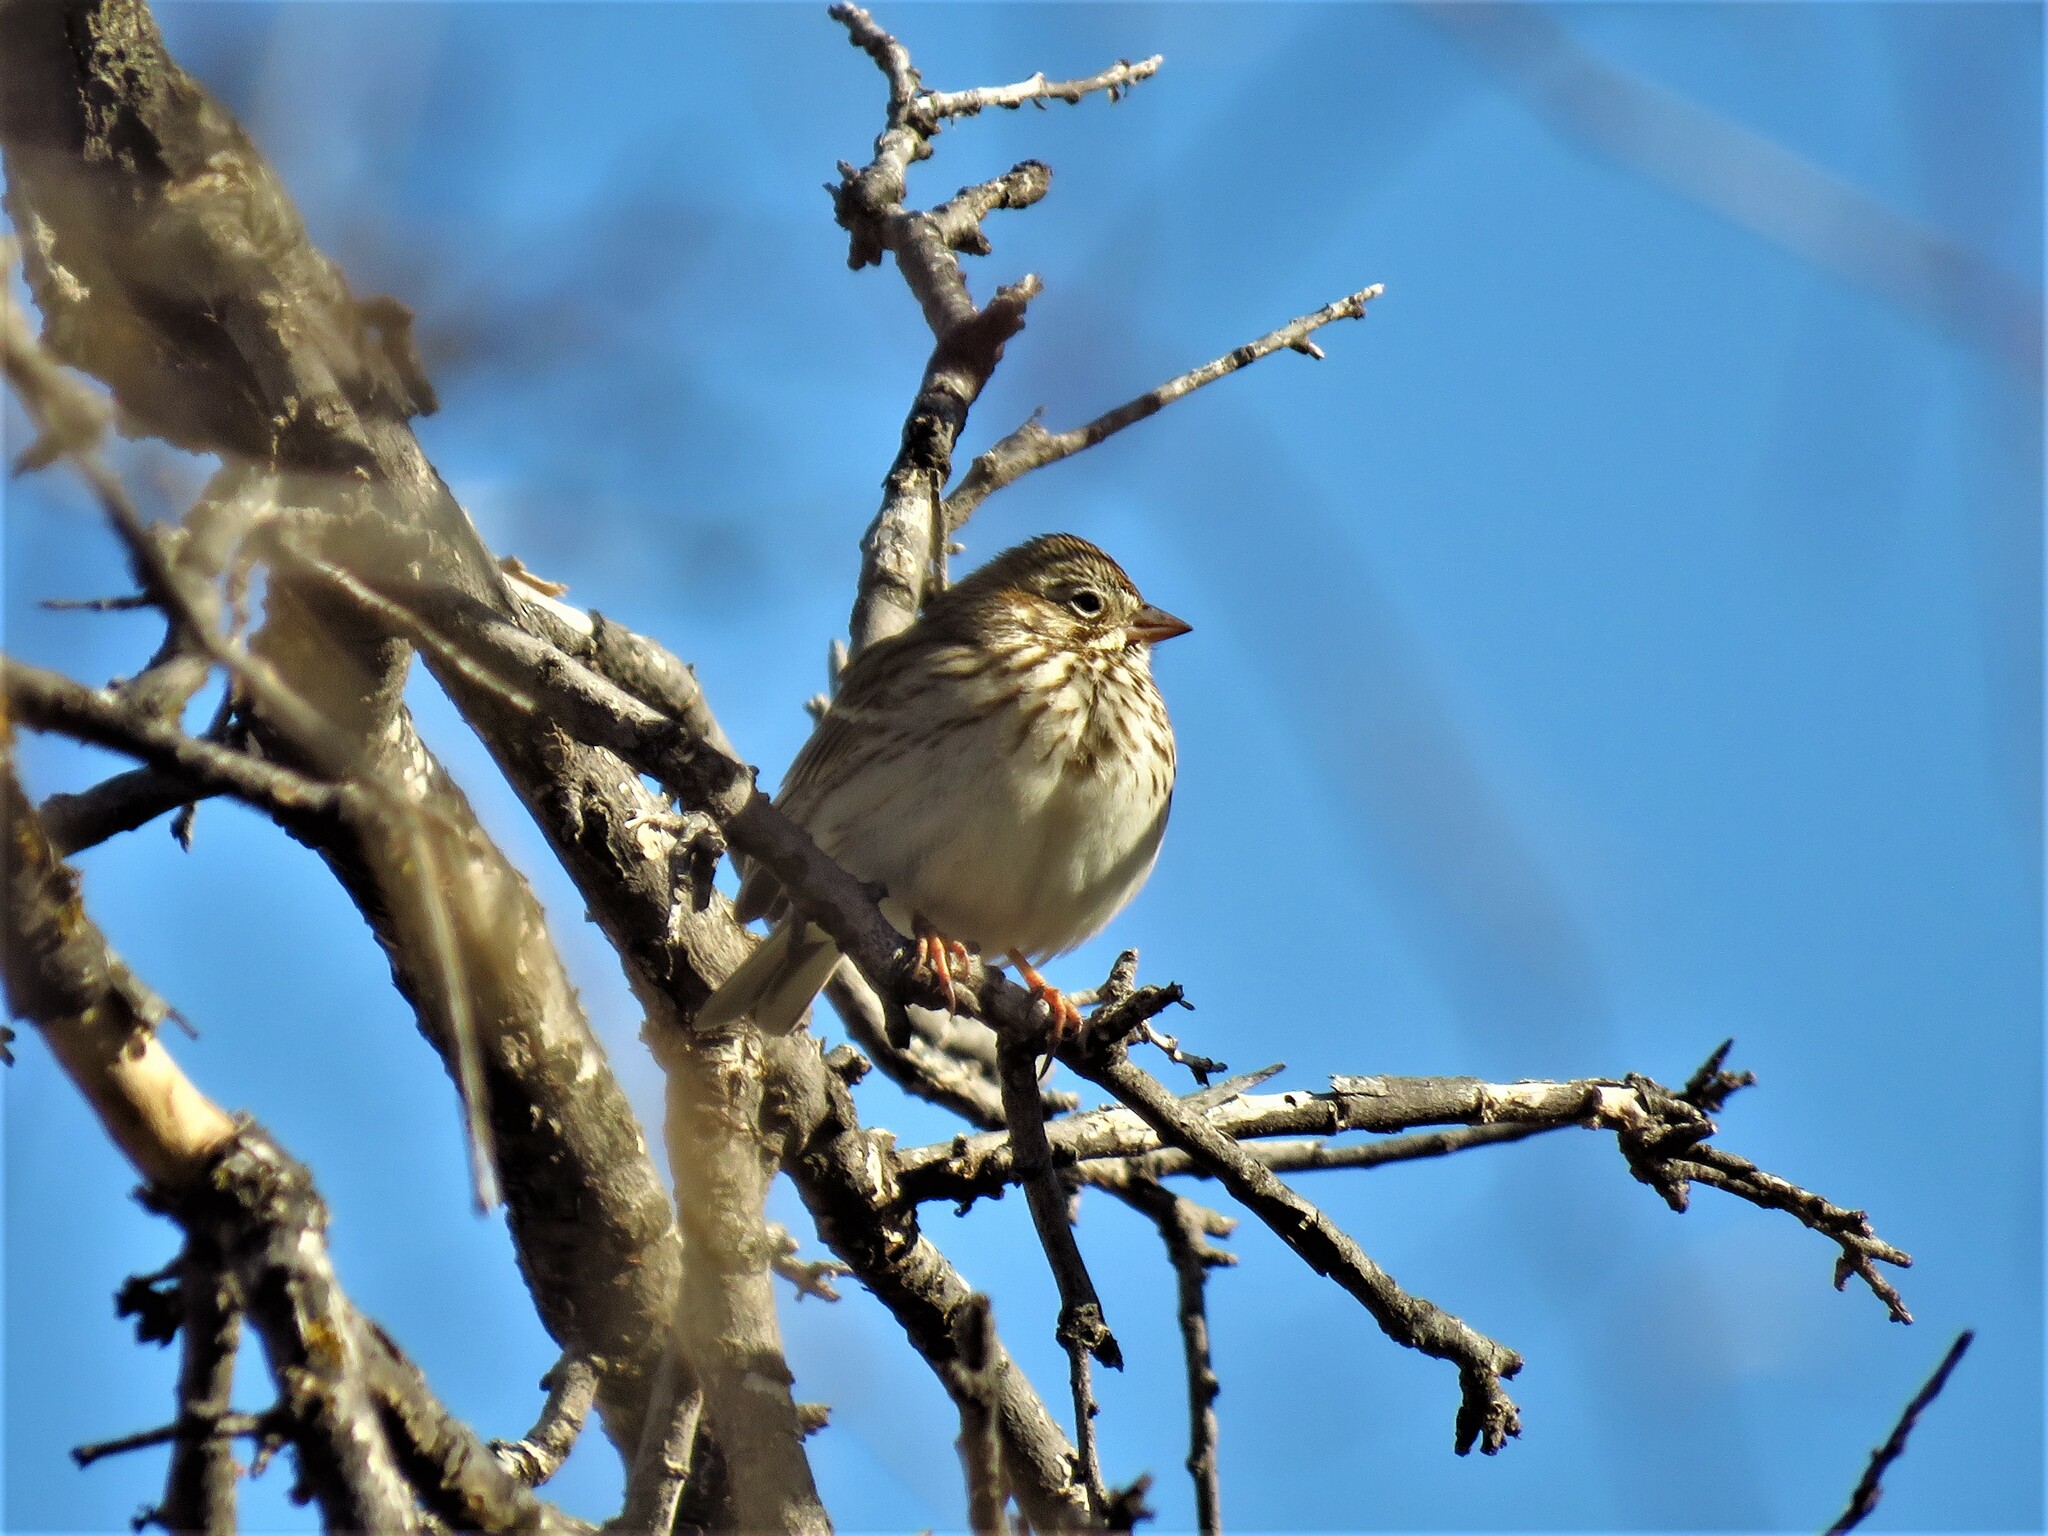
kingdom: Animalia
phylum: Chordata
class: Aves
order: Passeriformes
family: Passerellidae
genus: Pooecetes
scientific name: Pooecetes gramineus
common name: Vesper sparrow
